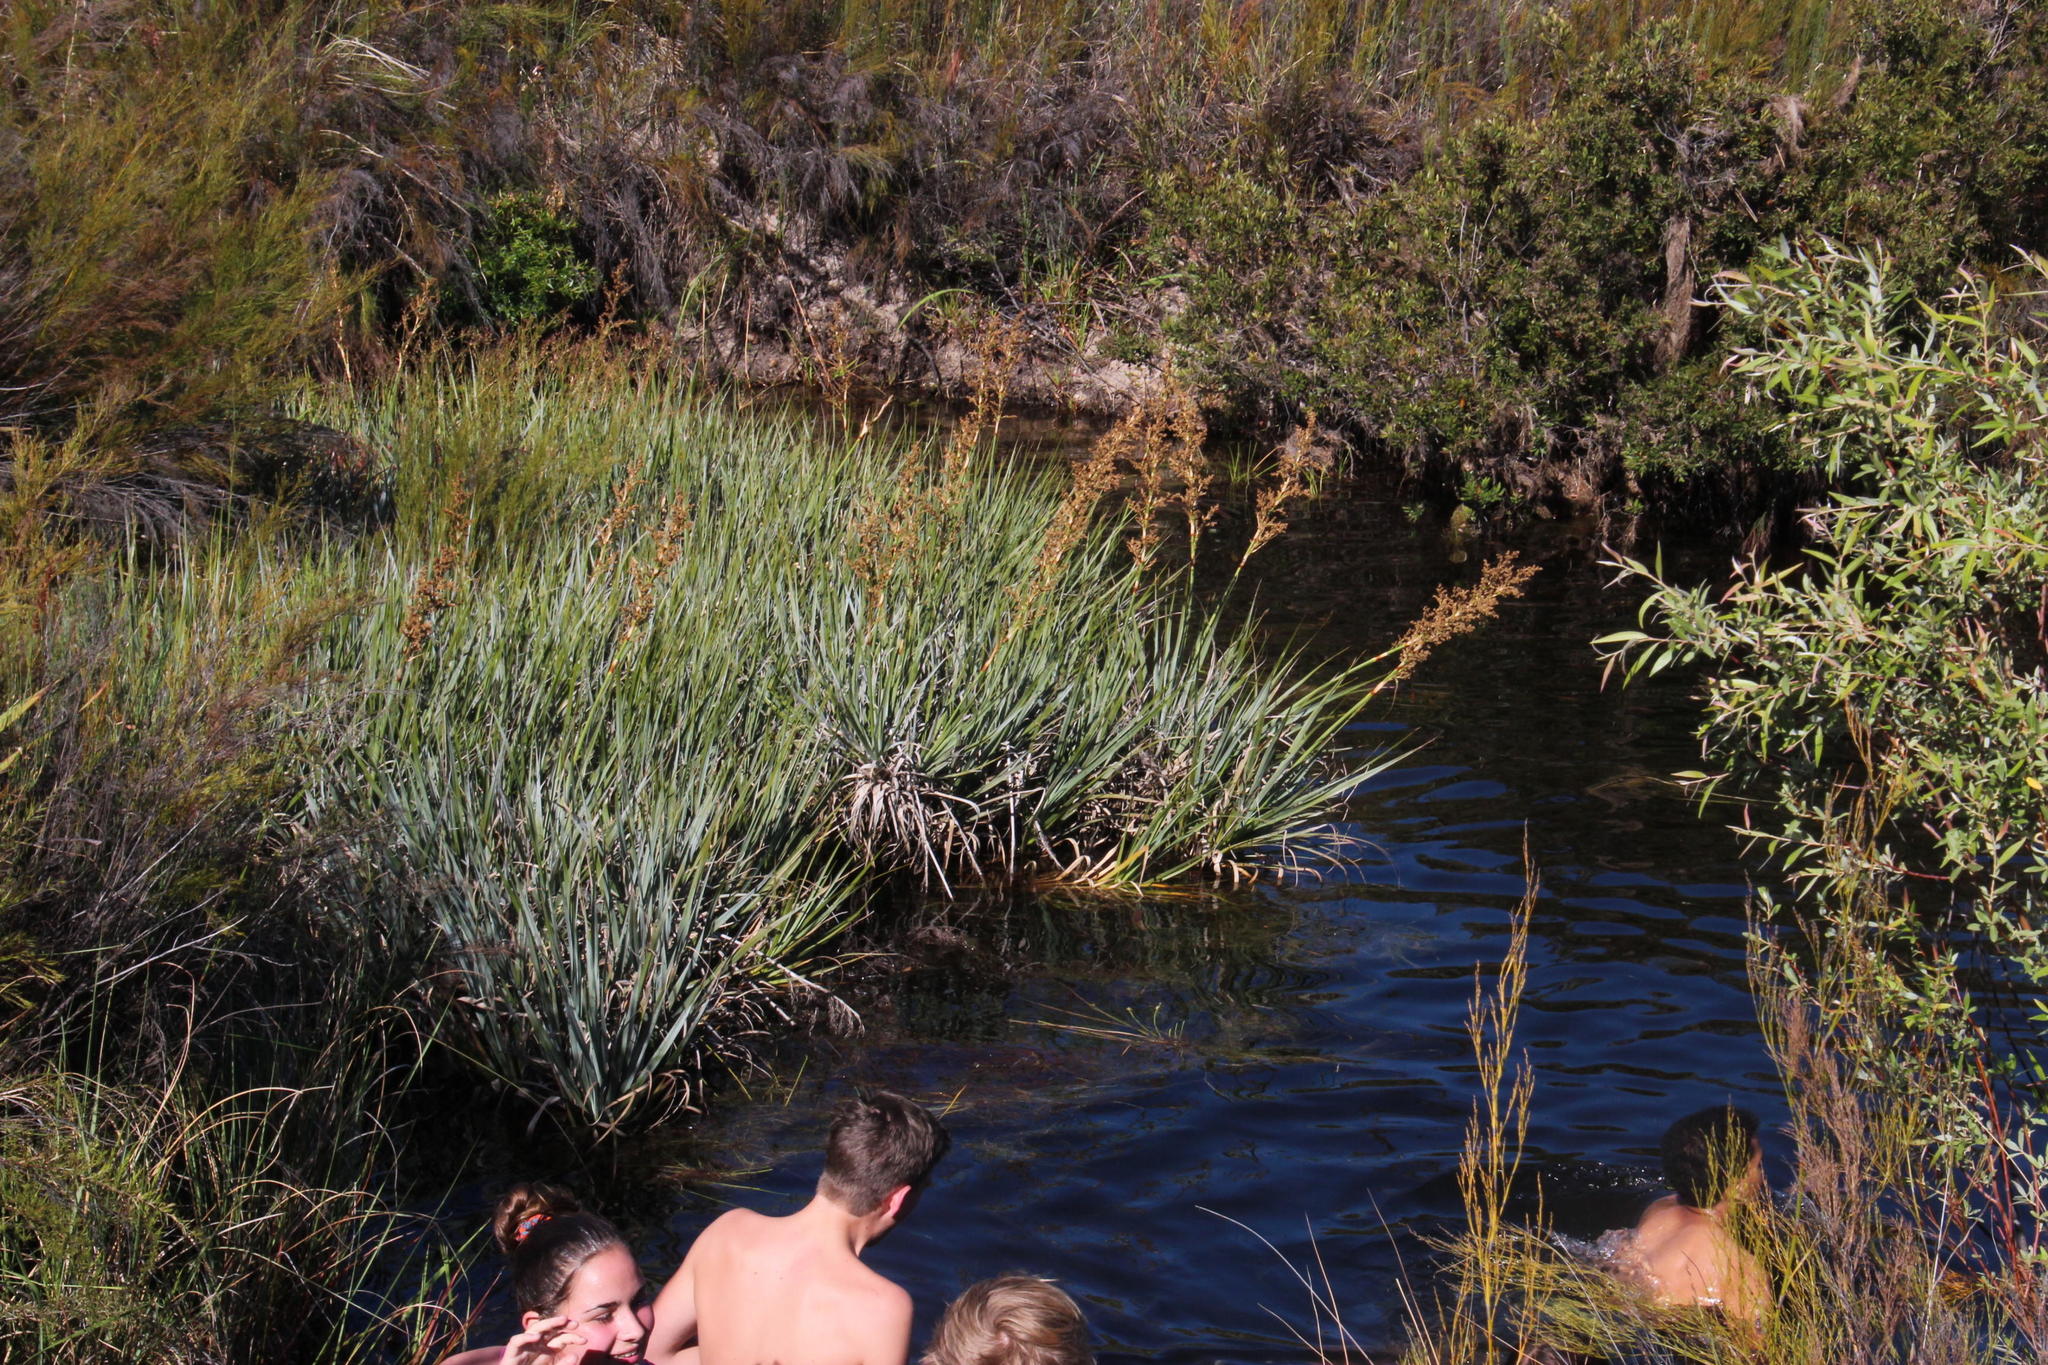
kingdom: Plantae
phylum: Tracheophyta
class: Liliopsida
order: Poales
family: Thurniaceae
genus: Prionium
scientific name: Prionium serratum
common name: Palmiet
